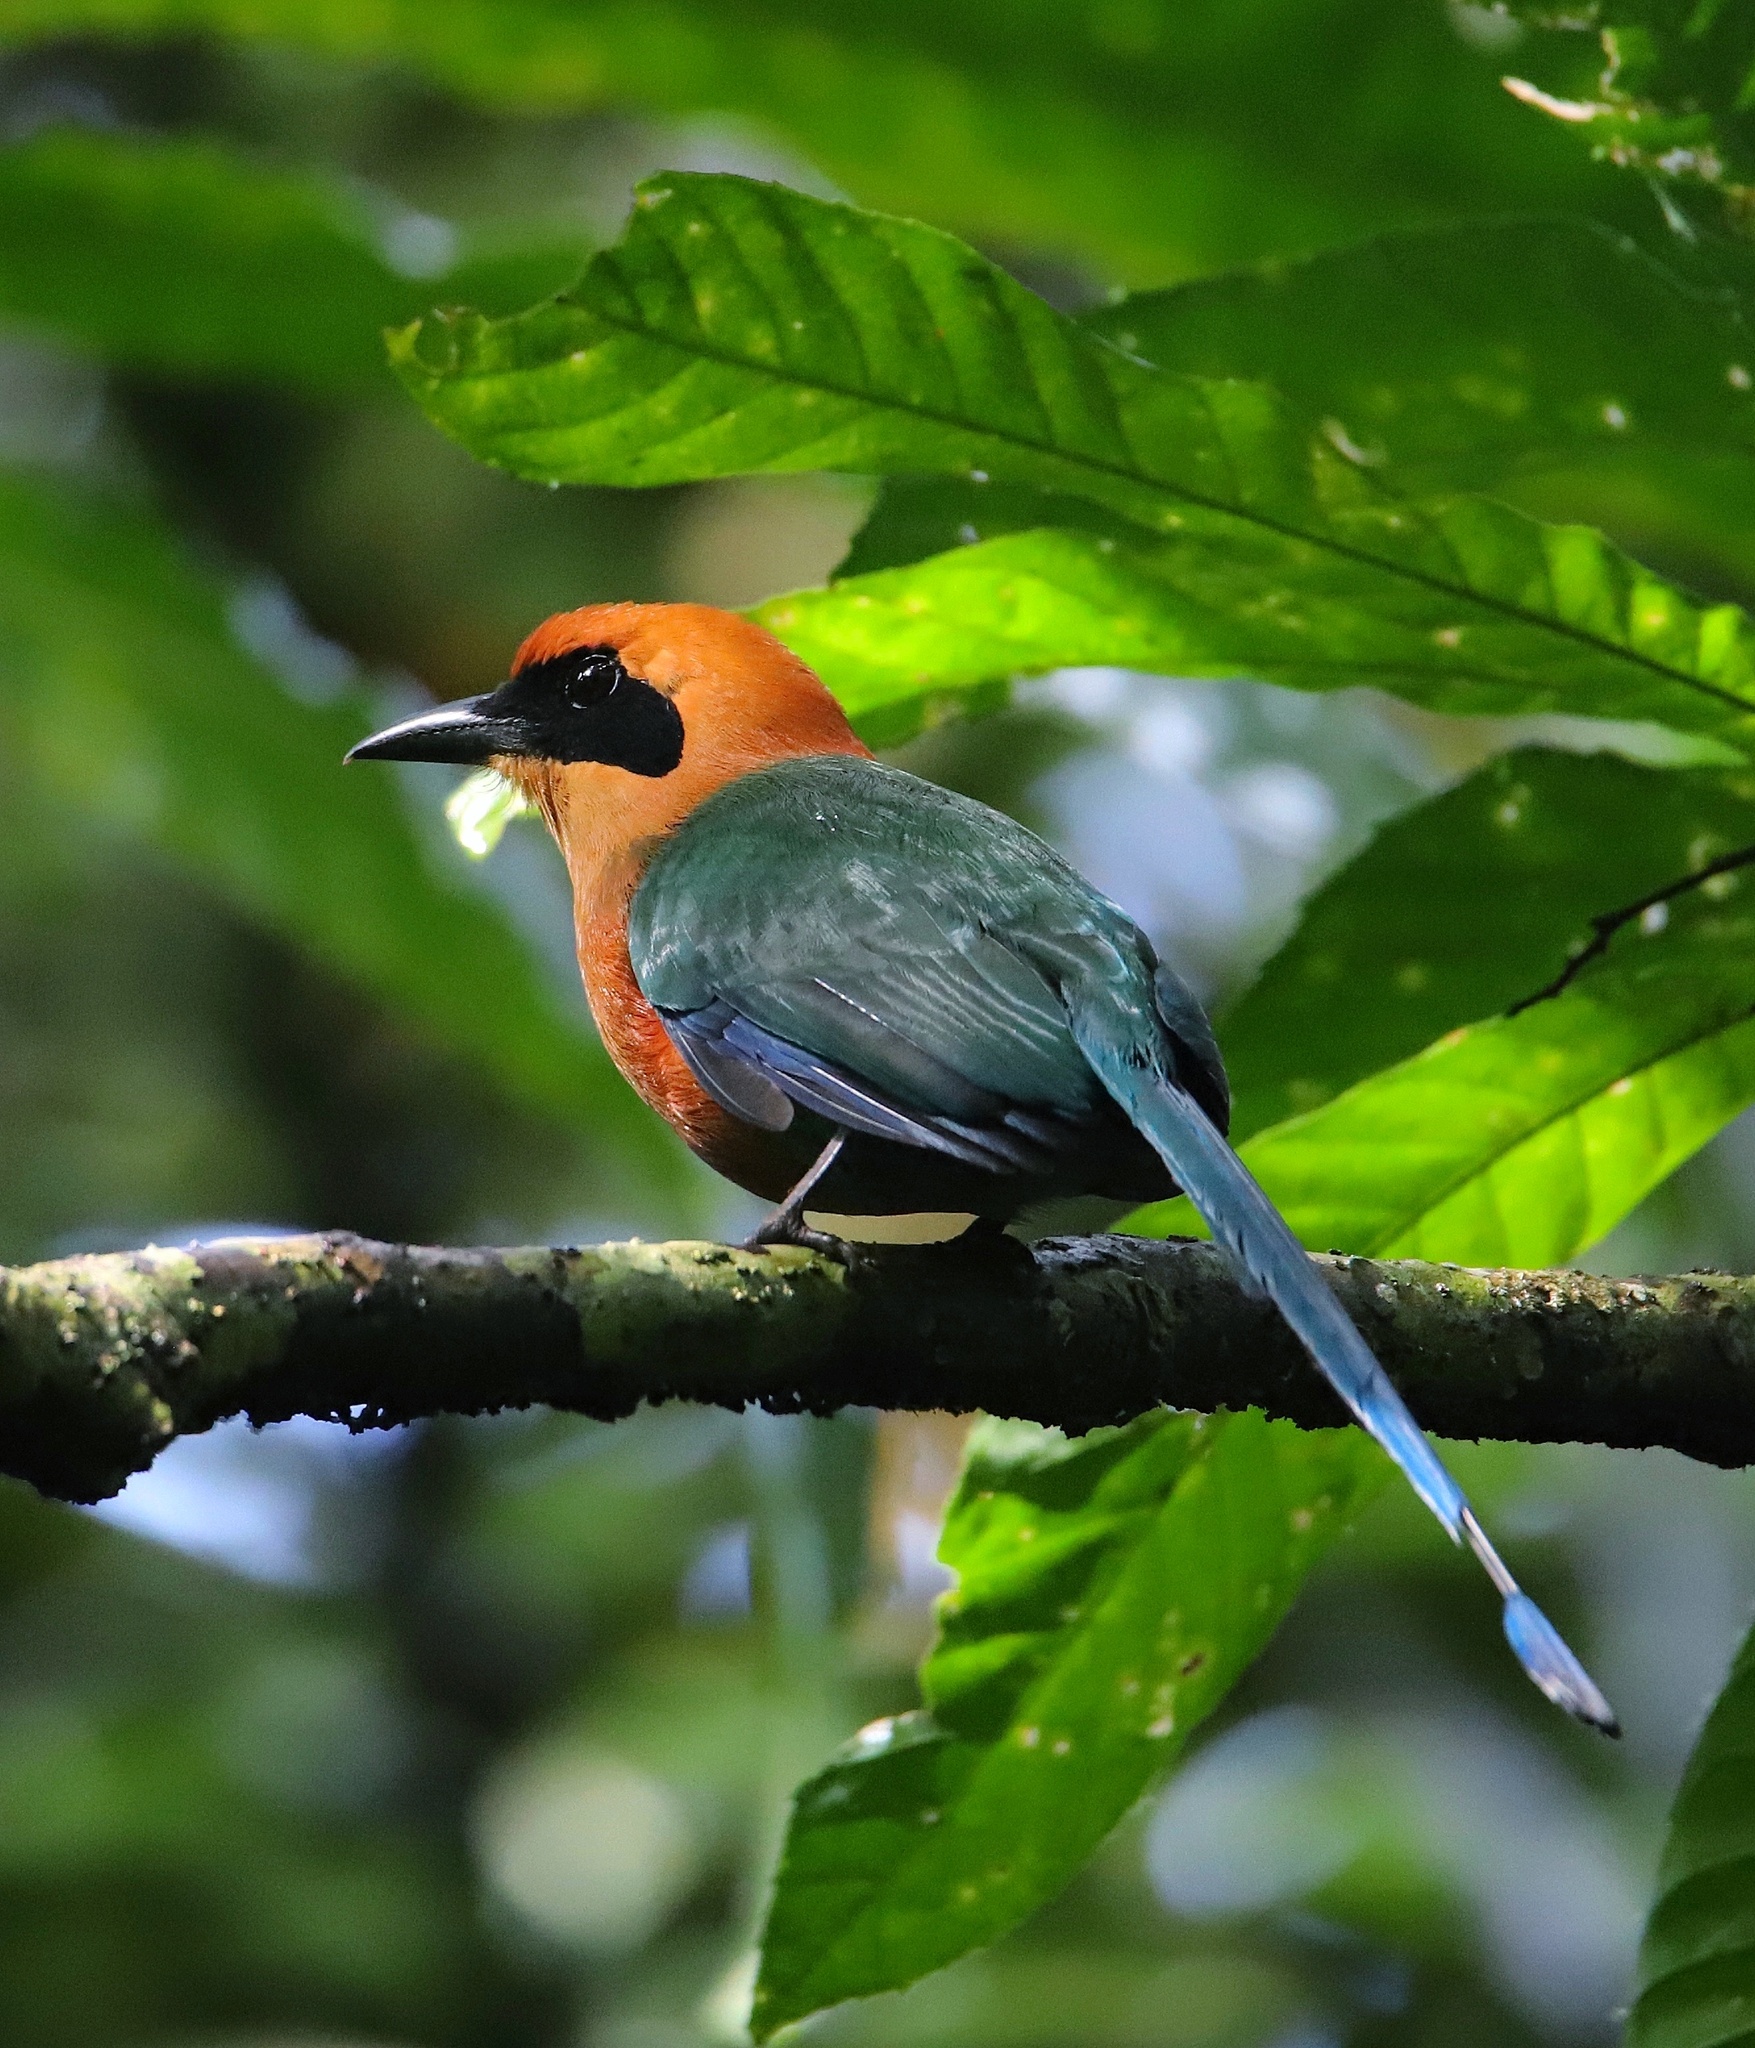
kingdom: Animalia
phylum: Chordata
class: Aves
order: Coraciiformes
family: Momotidae
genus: Baryphthengus
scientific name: Baryphthengus martii
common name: Rufous motmot
